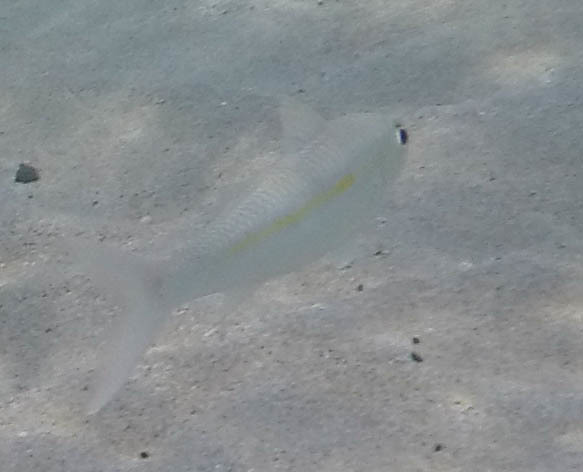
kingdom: Animalia
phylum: Chordata
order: Perciformes
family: Mullidae
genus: Mulloidichthys
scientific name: Mulloidichthys flavolineatus
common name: Yellowstripe goatfish
